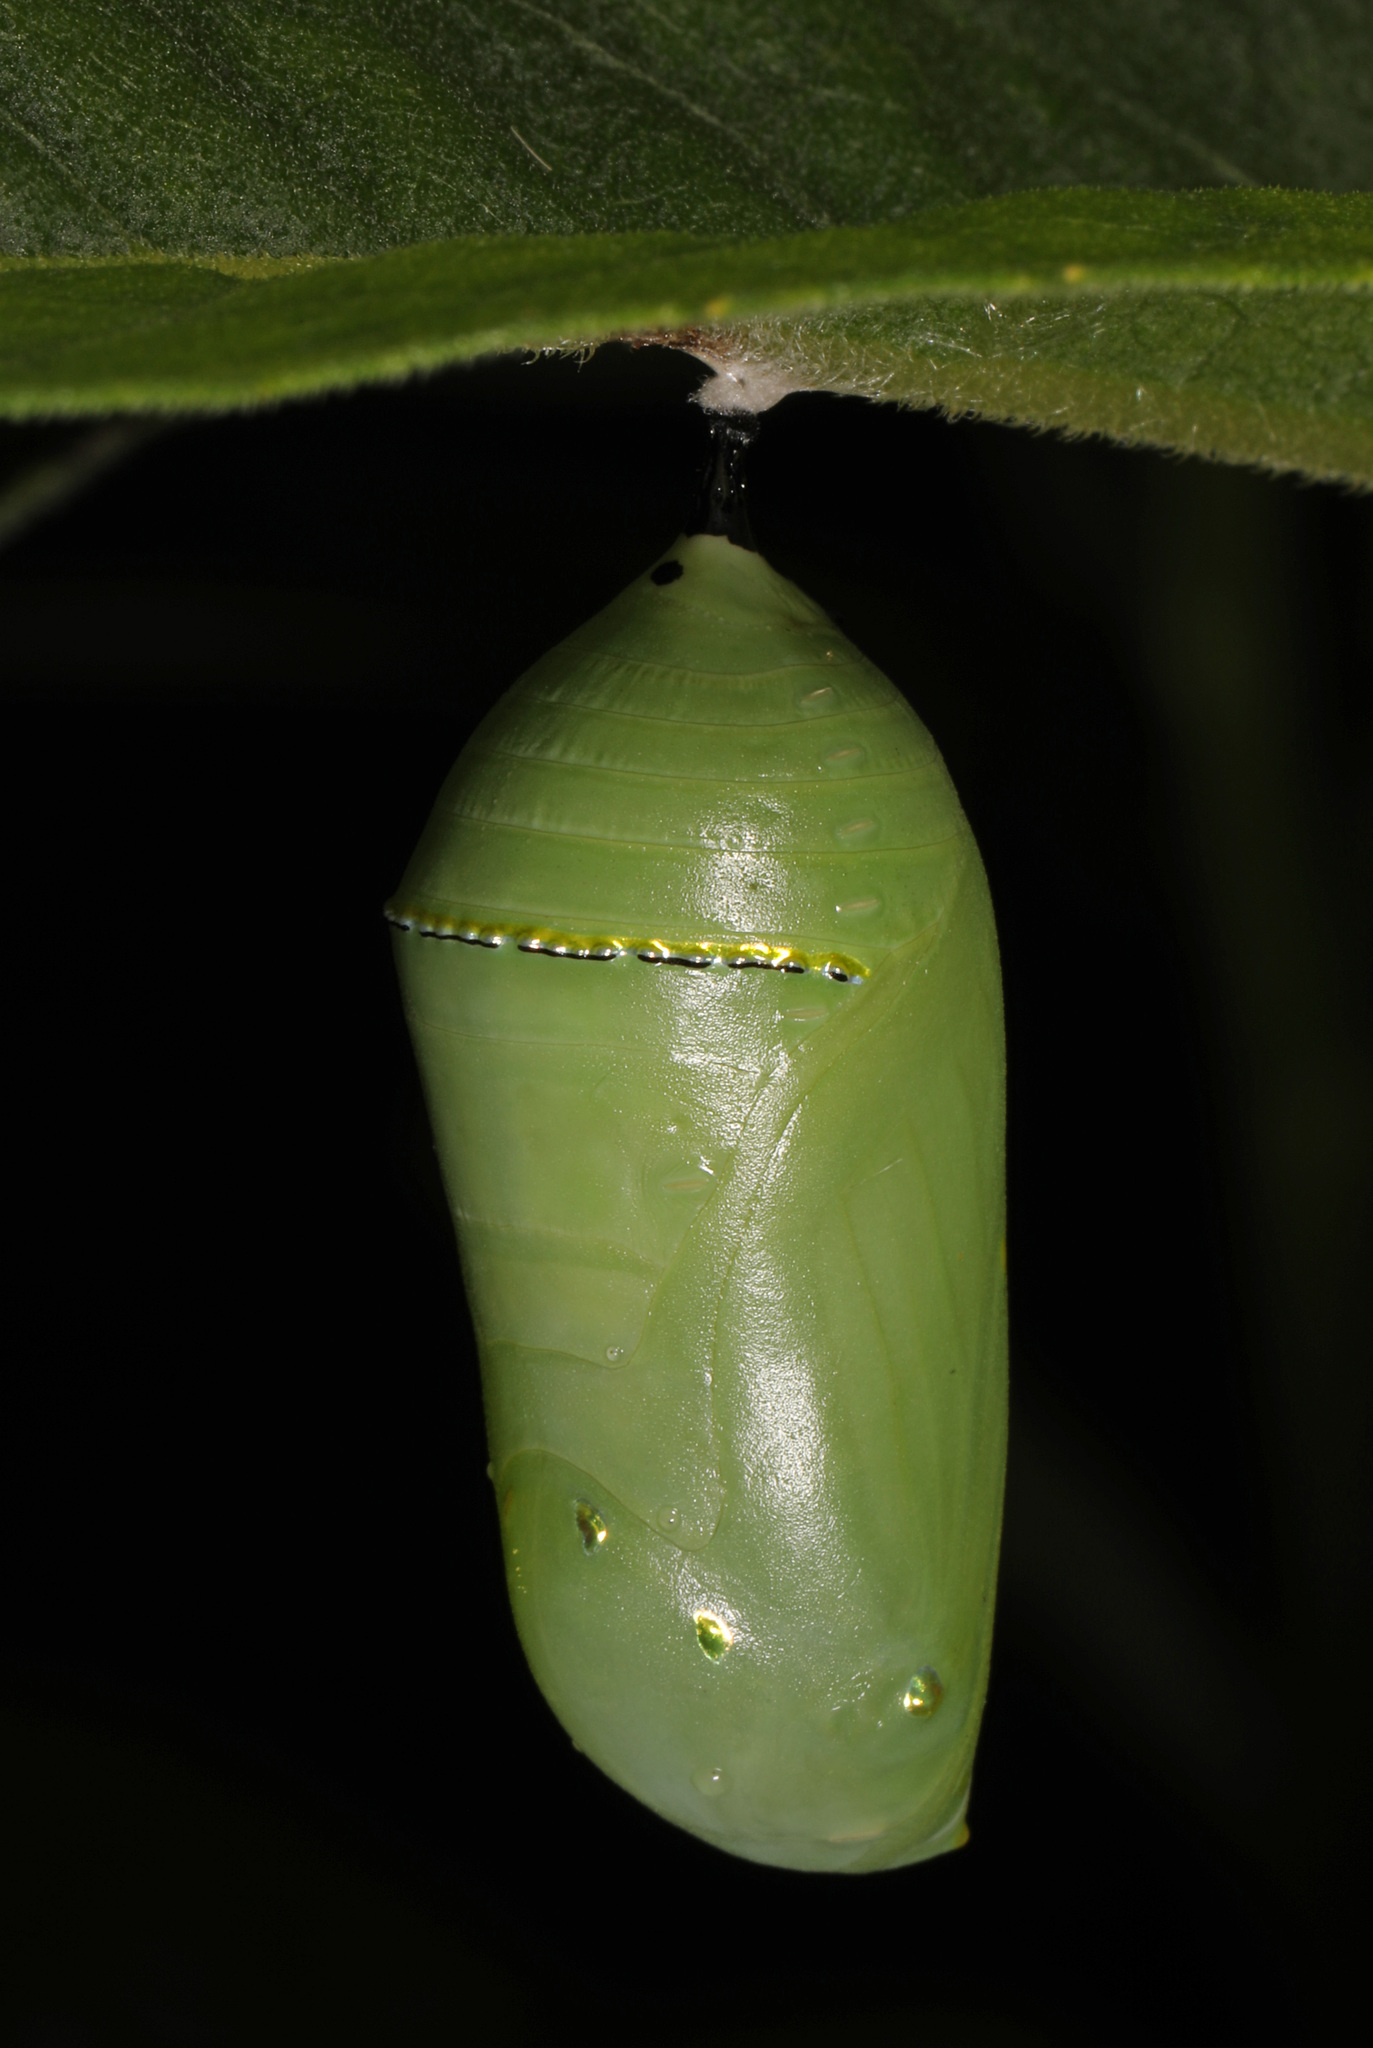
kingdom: Animalia
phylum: Arthropoda
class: Insecta
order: Lepidoptera
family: Nymphalidae
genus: Danaus
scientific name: Danaus plexippus
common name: Monarch
